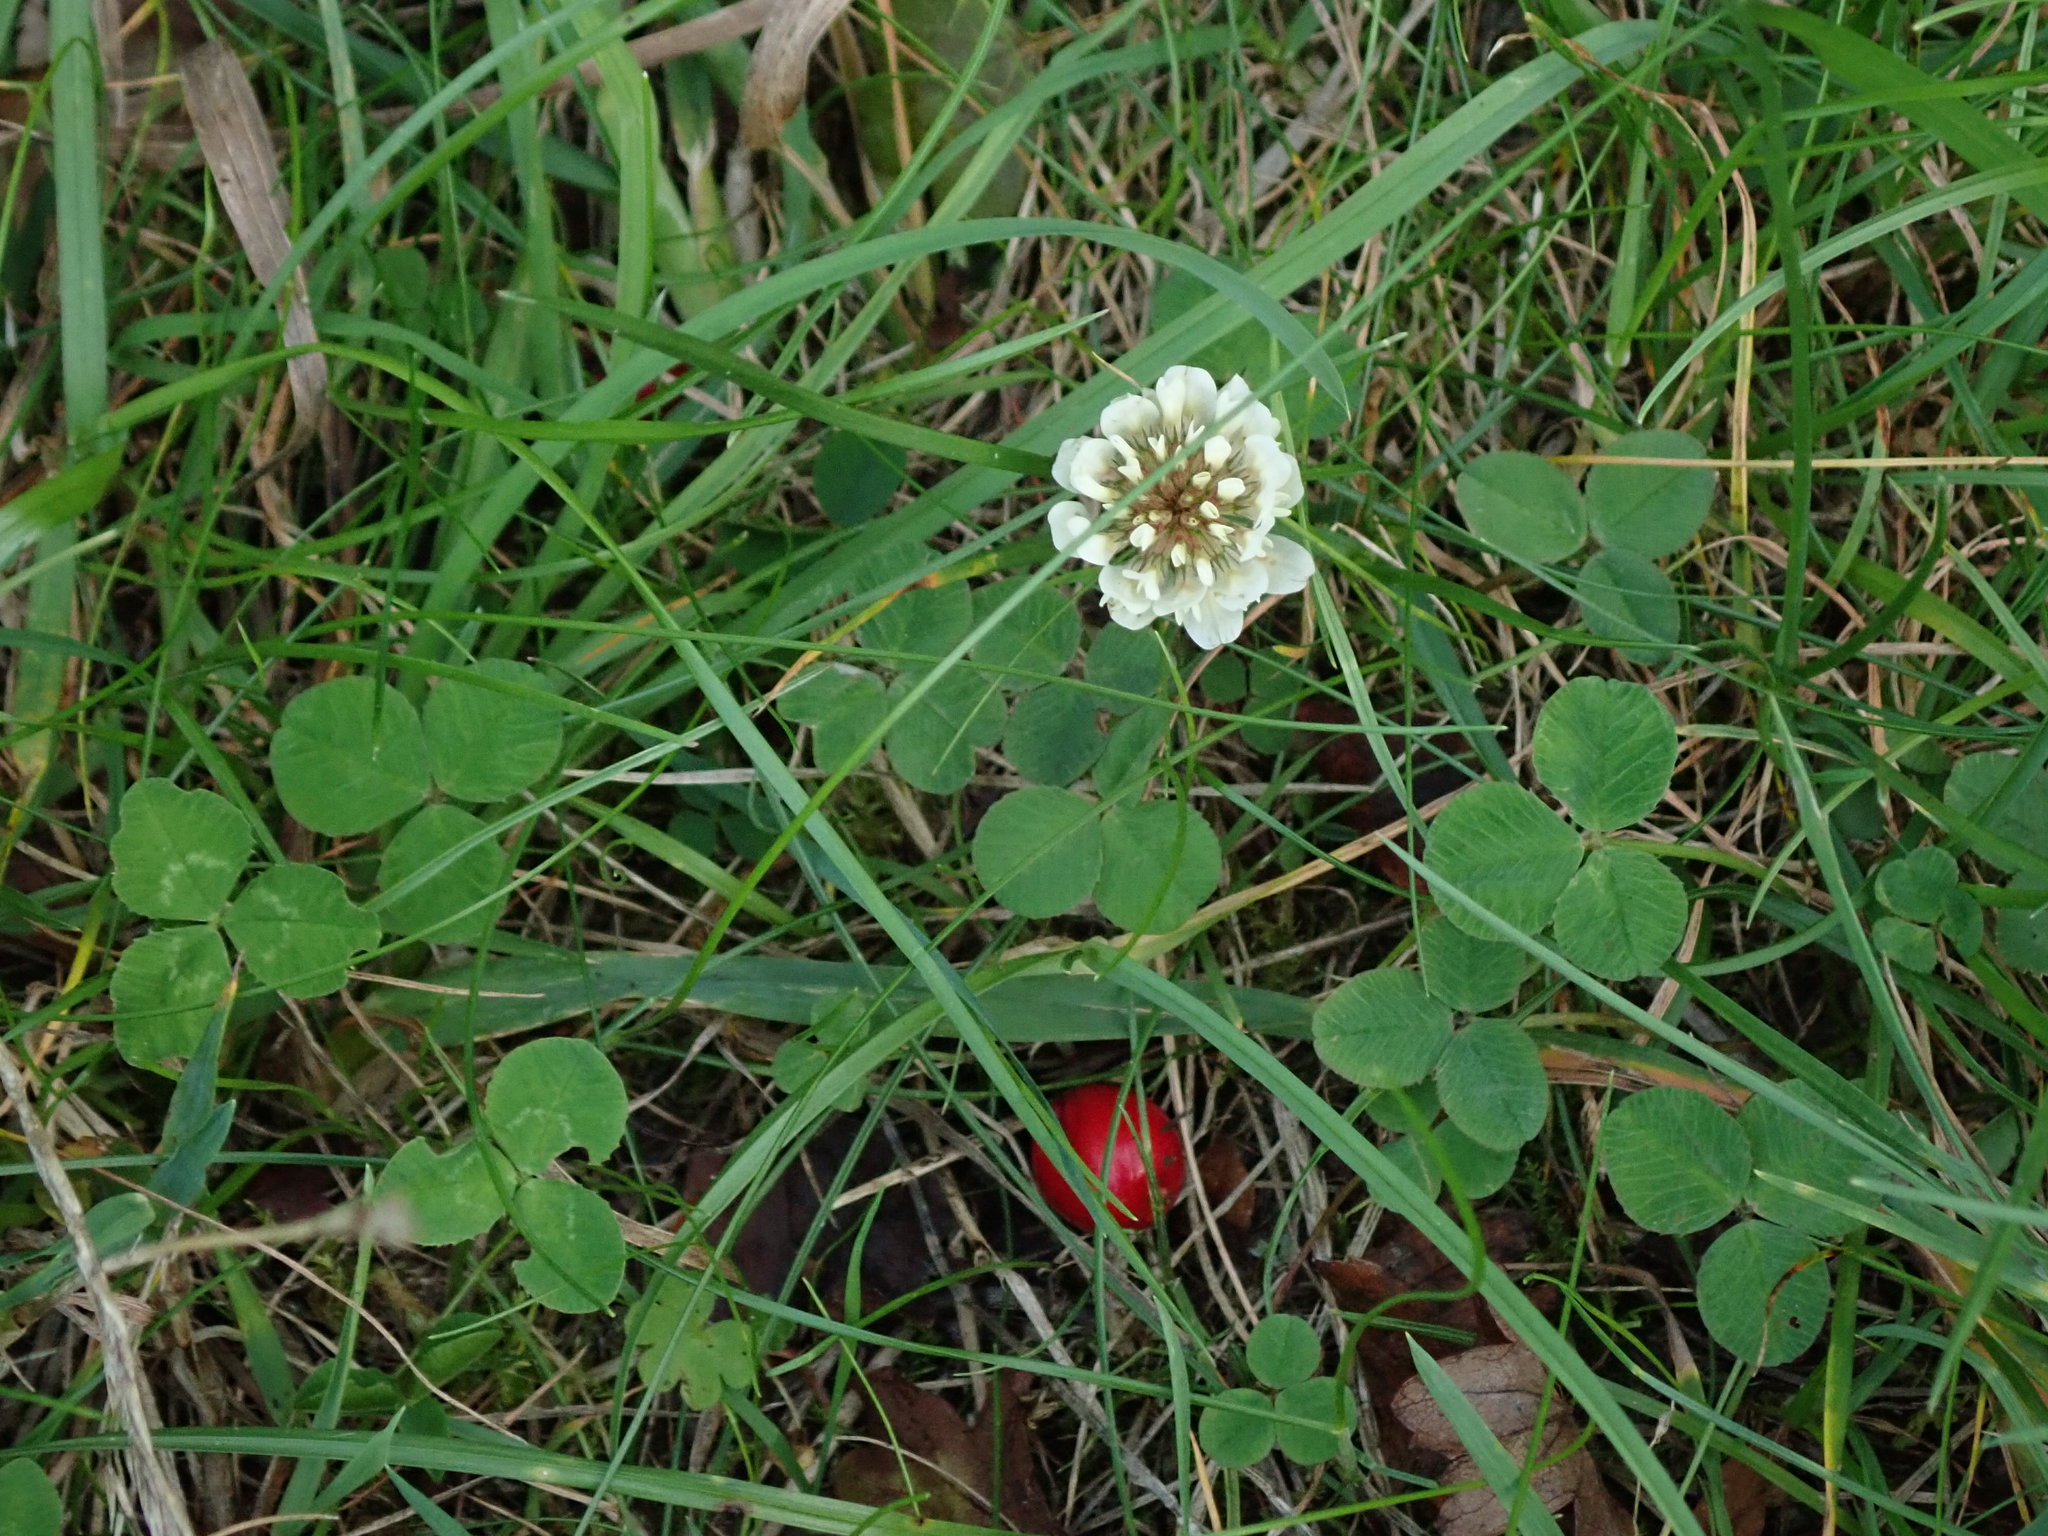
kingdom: Plantae
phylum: Tracheophyta
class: Magnoliopsida
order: Fabales
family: Fabaceae
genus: Trifolium
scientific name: Trifolium repens
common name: White clover
